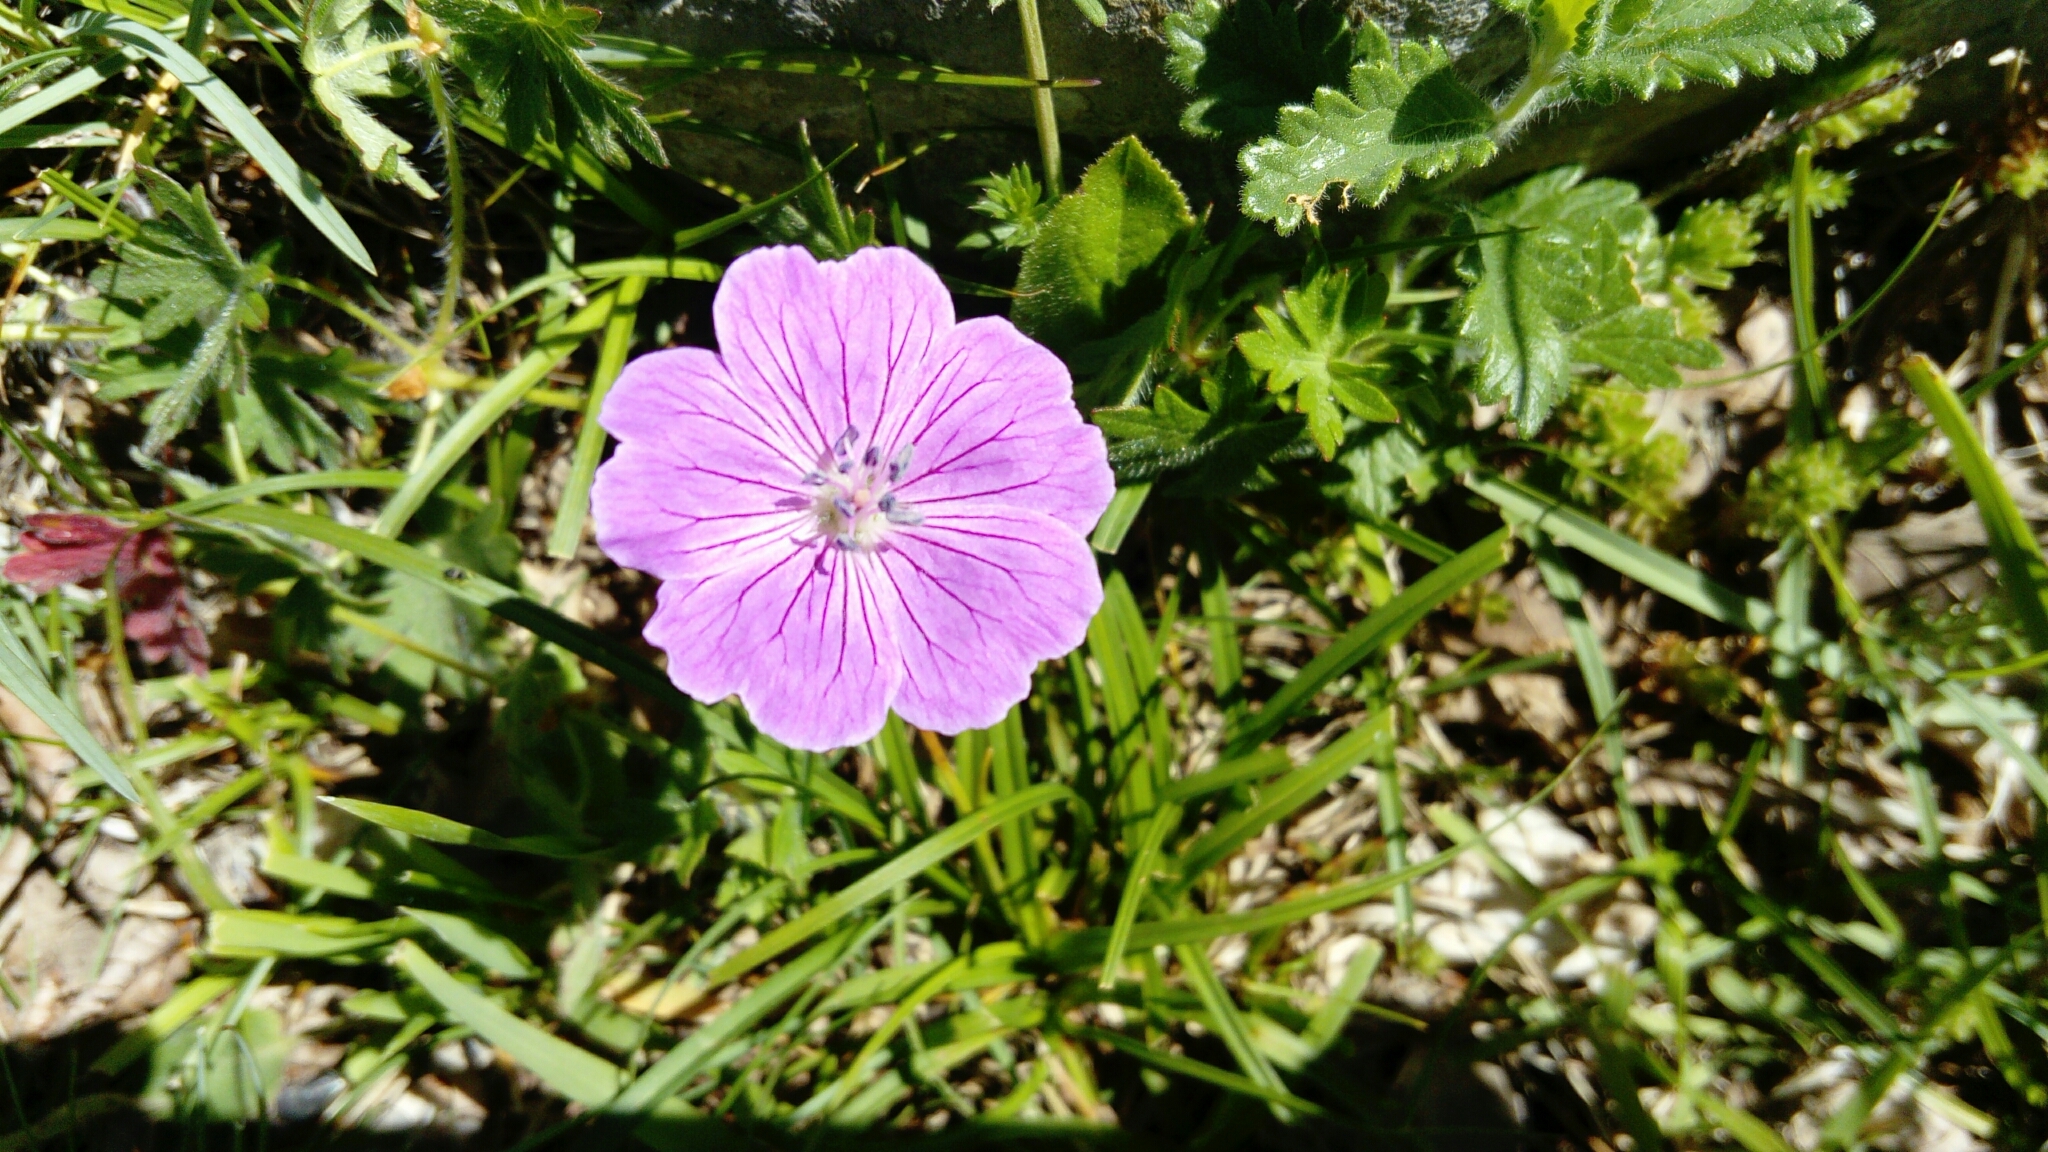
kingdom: Plantae
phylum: Tracheophyta
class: Magnoliopsida
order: Geraniales
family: Geraniaceae
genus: Geranium
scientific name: Geranium sanguineum
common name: Bloody crane's-bill
